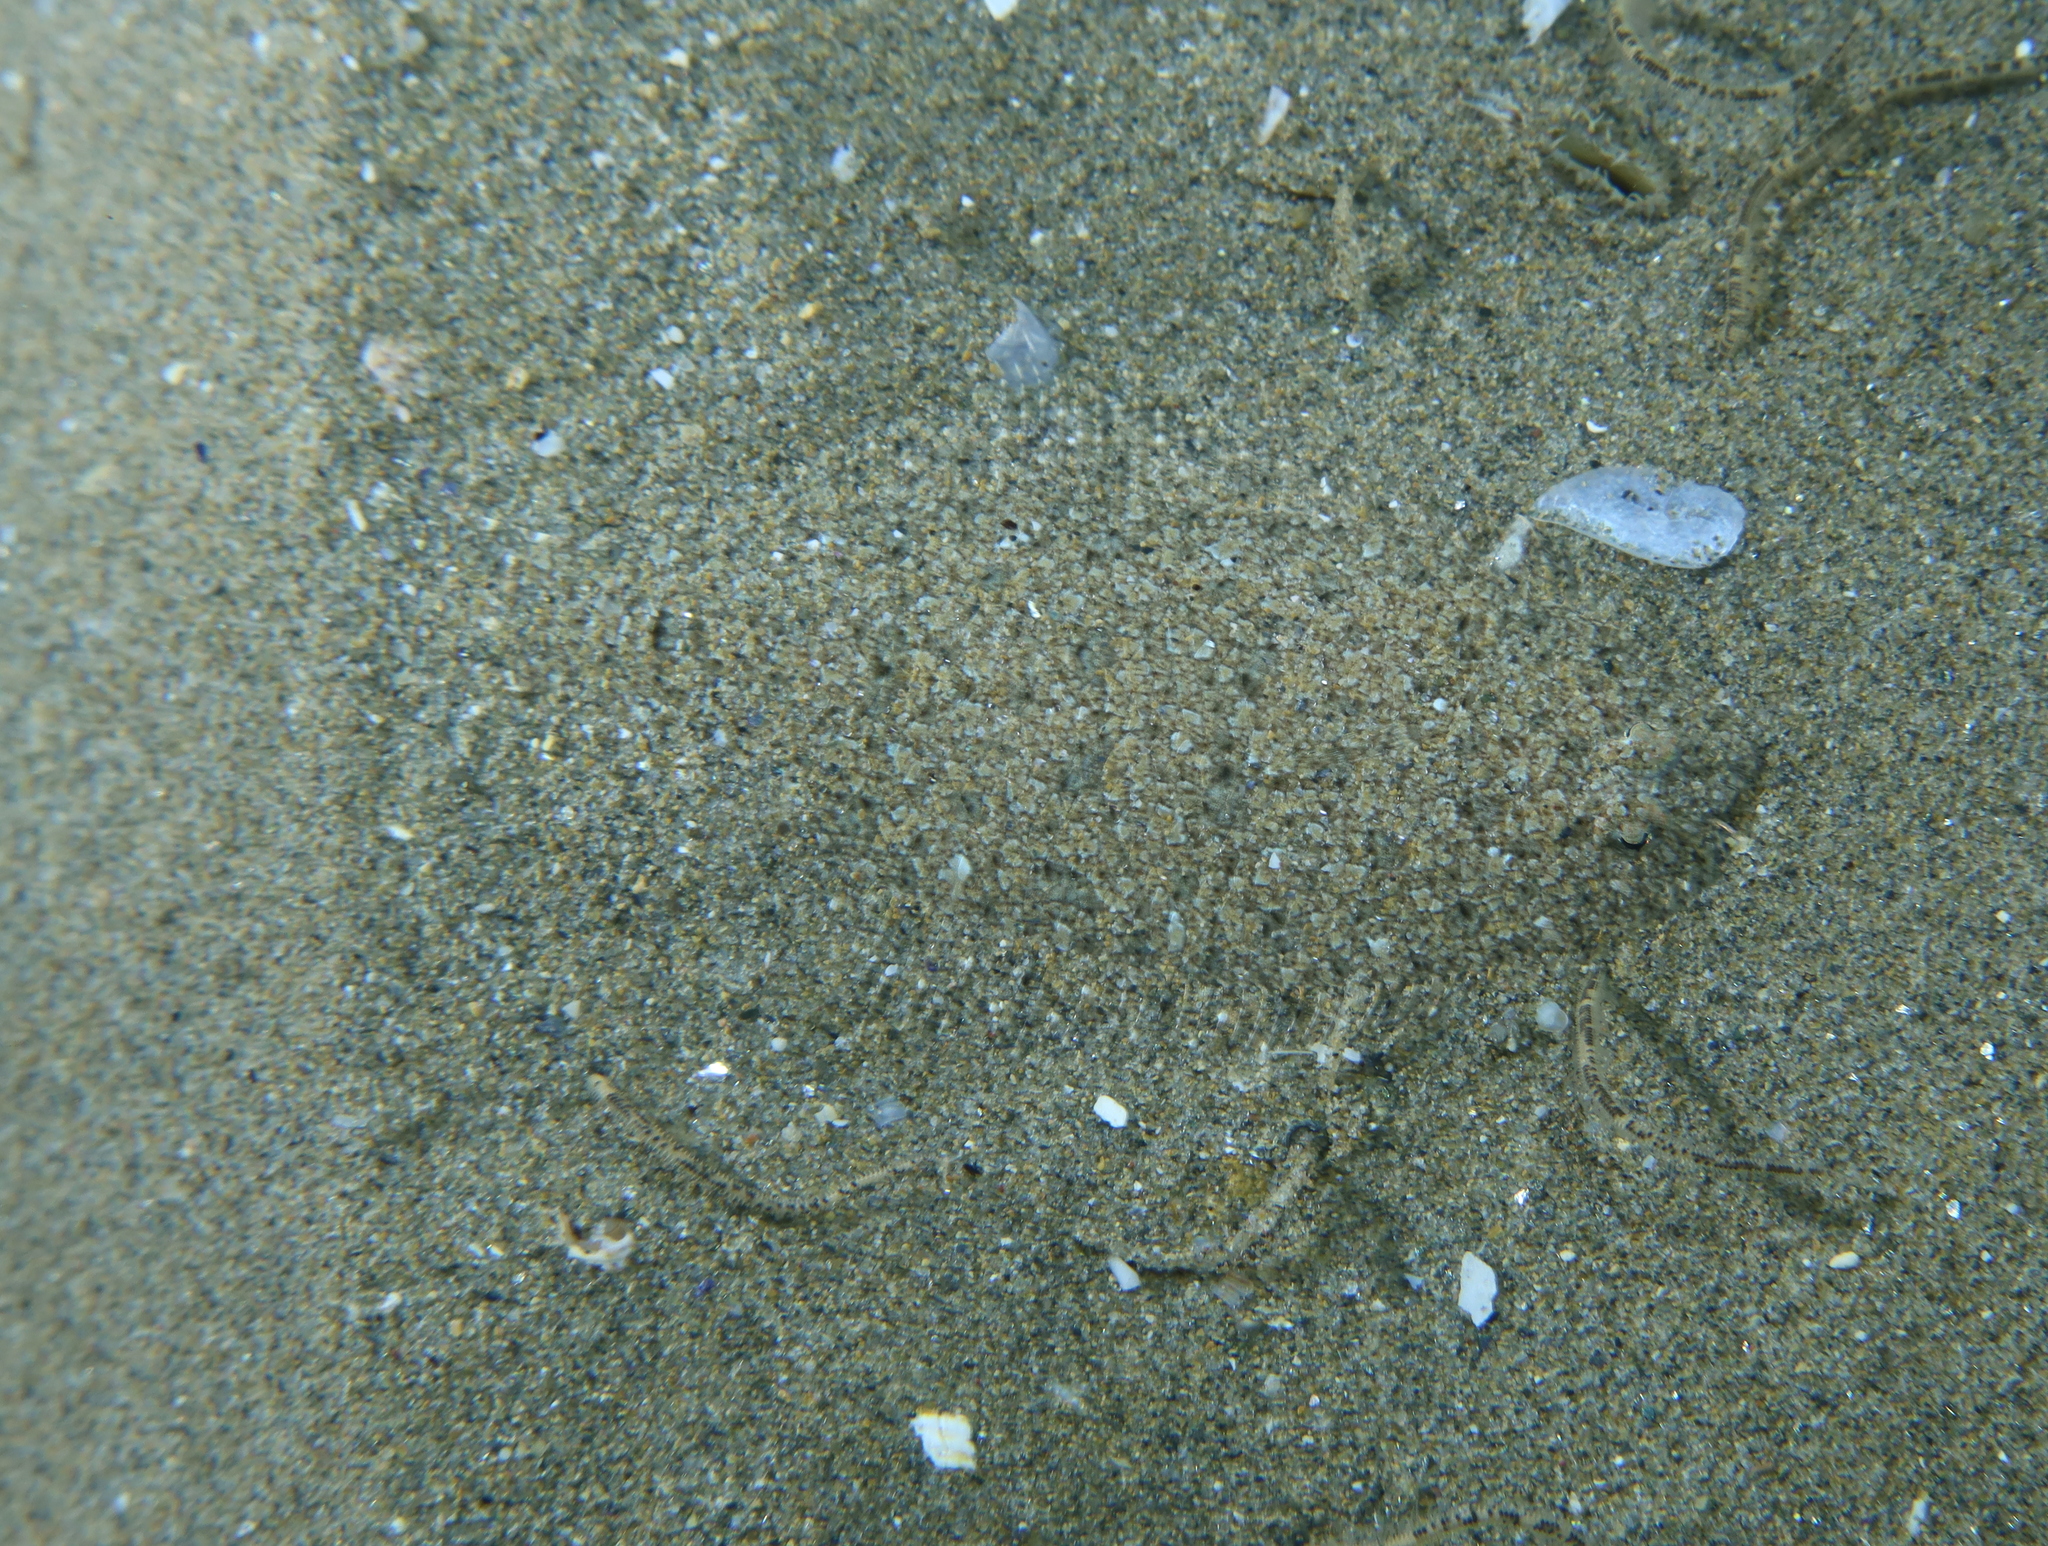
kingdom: Animalia
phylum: Chordata
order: Pleuronectiformes
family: Bothidae
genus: Arnoglossus
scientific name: Arnoglossus grohmanni
